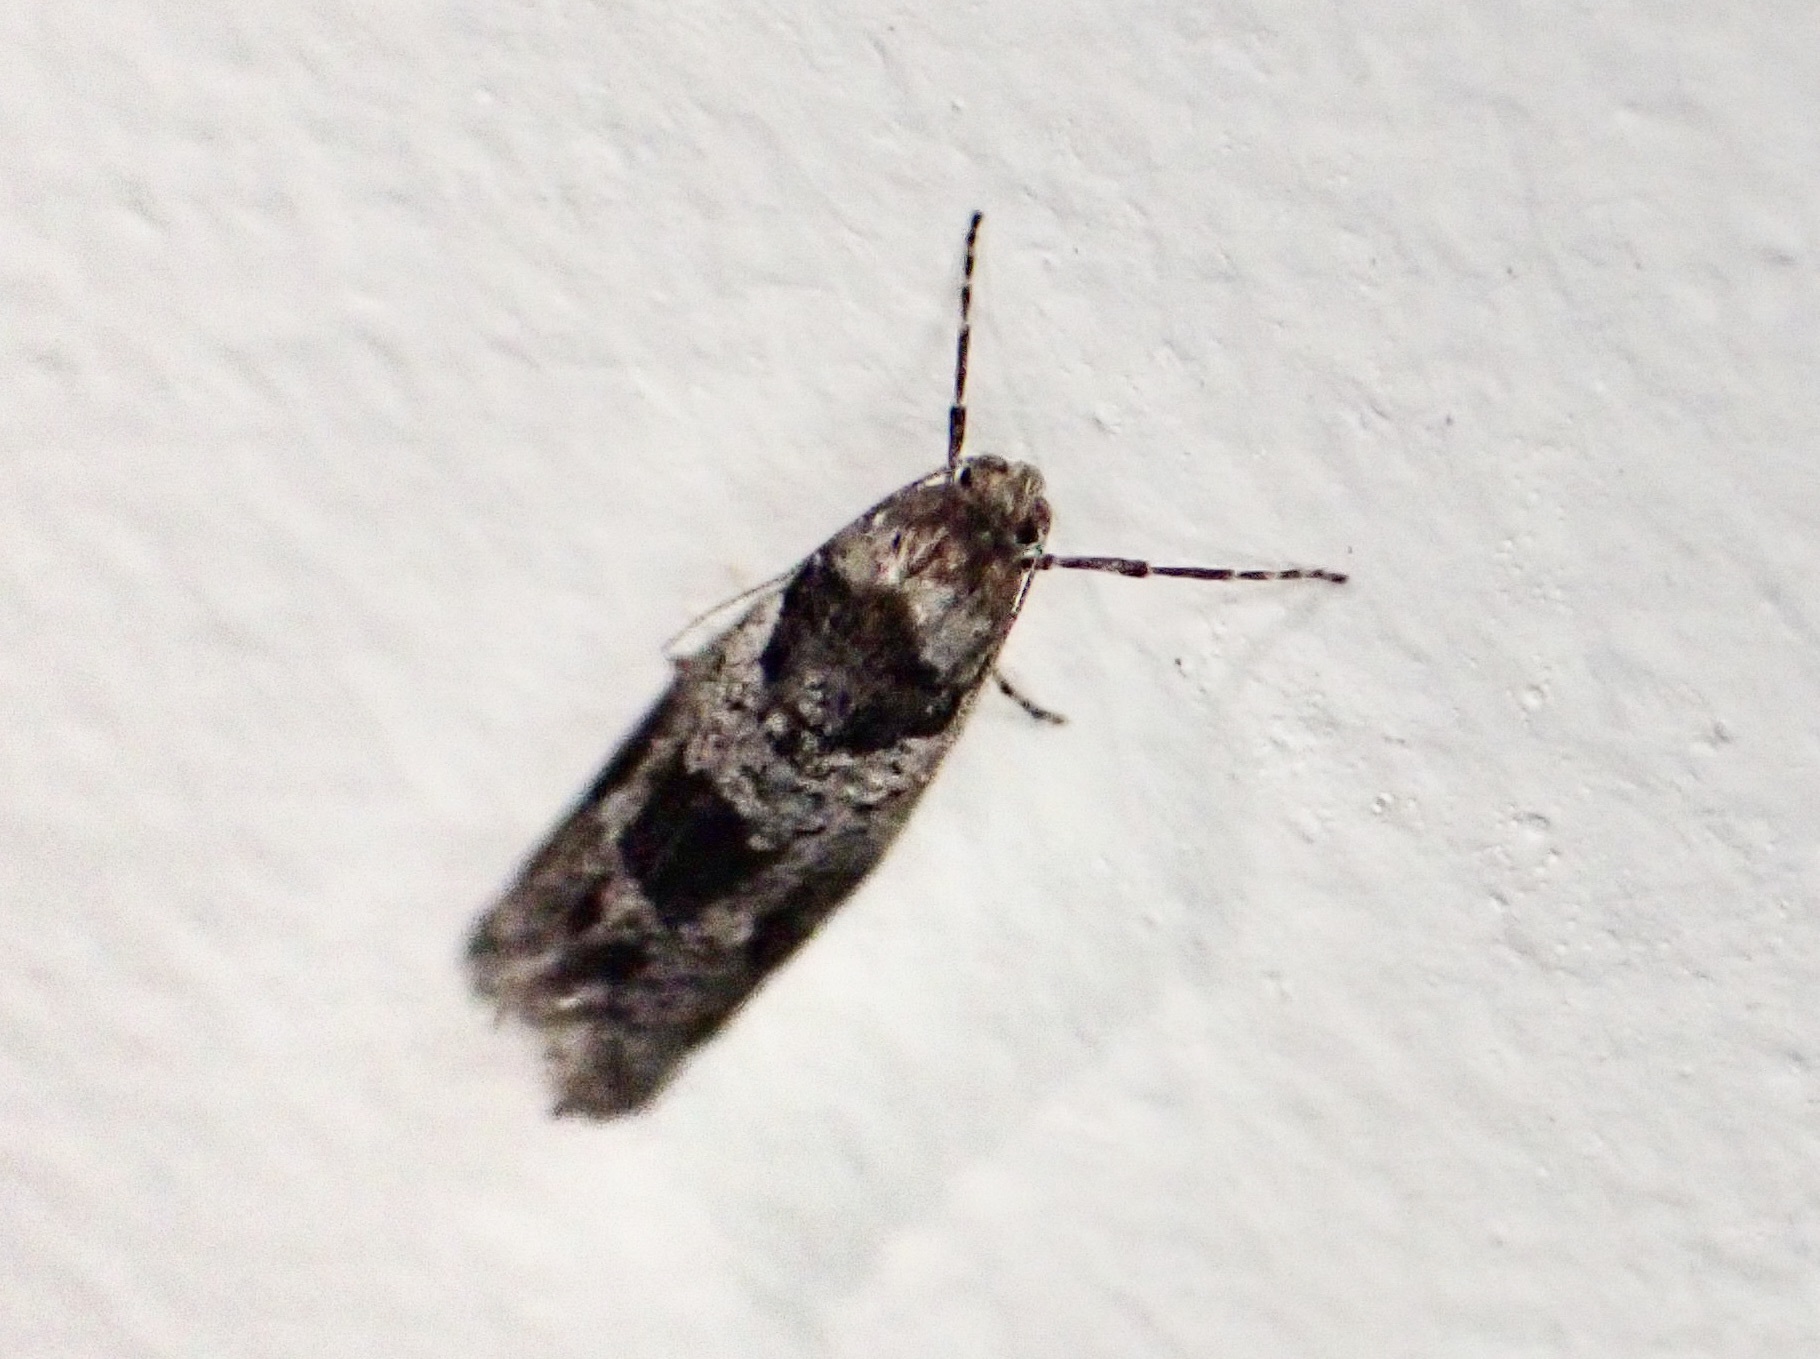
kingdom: Animalia
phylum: Arthropoda
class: Insecta
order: Lepidoptera
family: Psychidae
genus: Lepidoscia
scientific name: Lepidoscia heliochares
